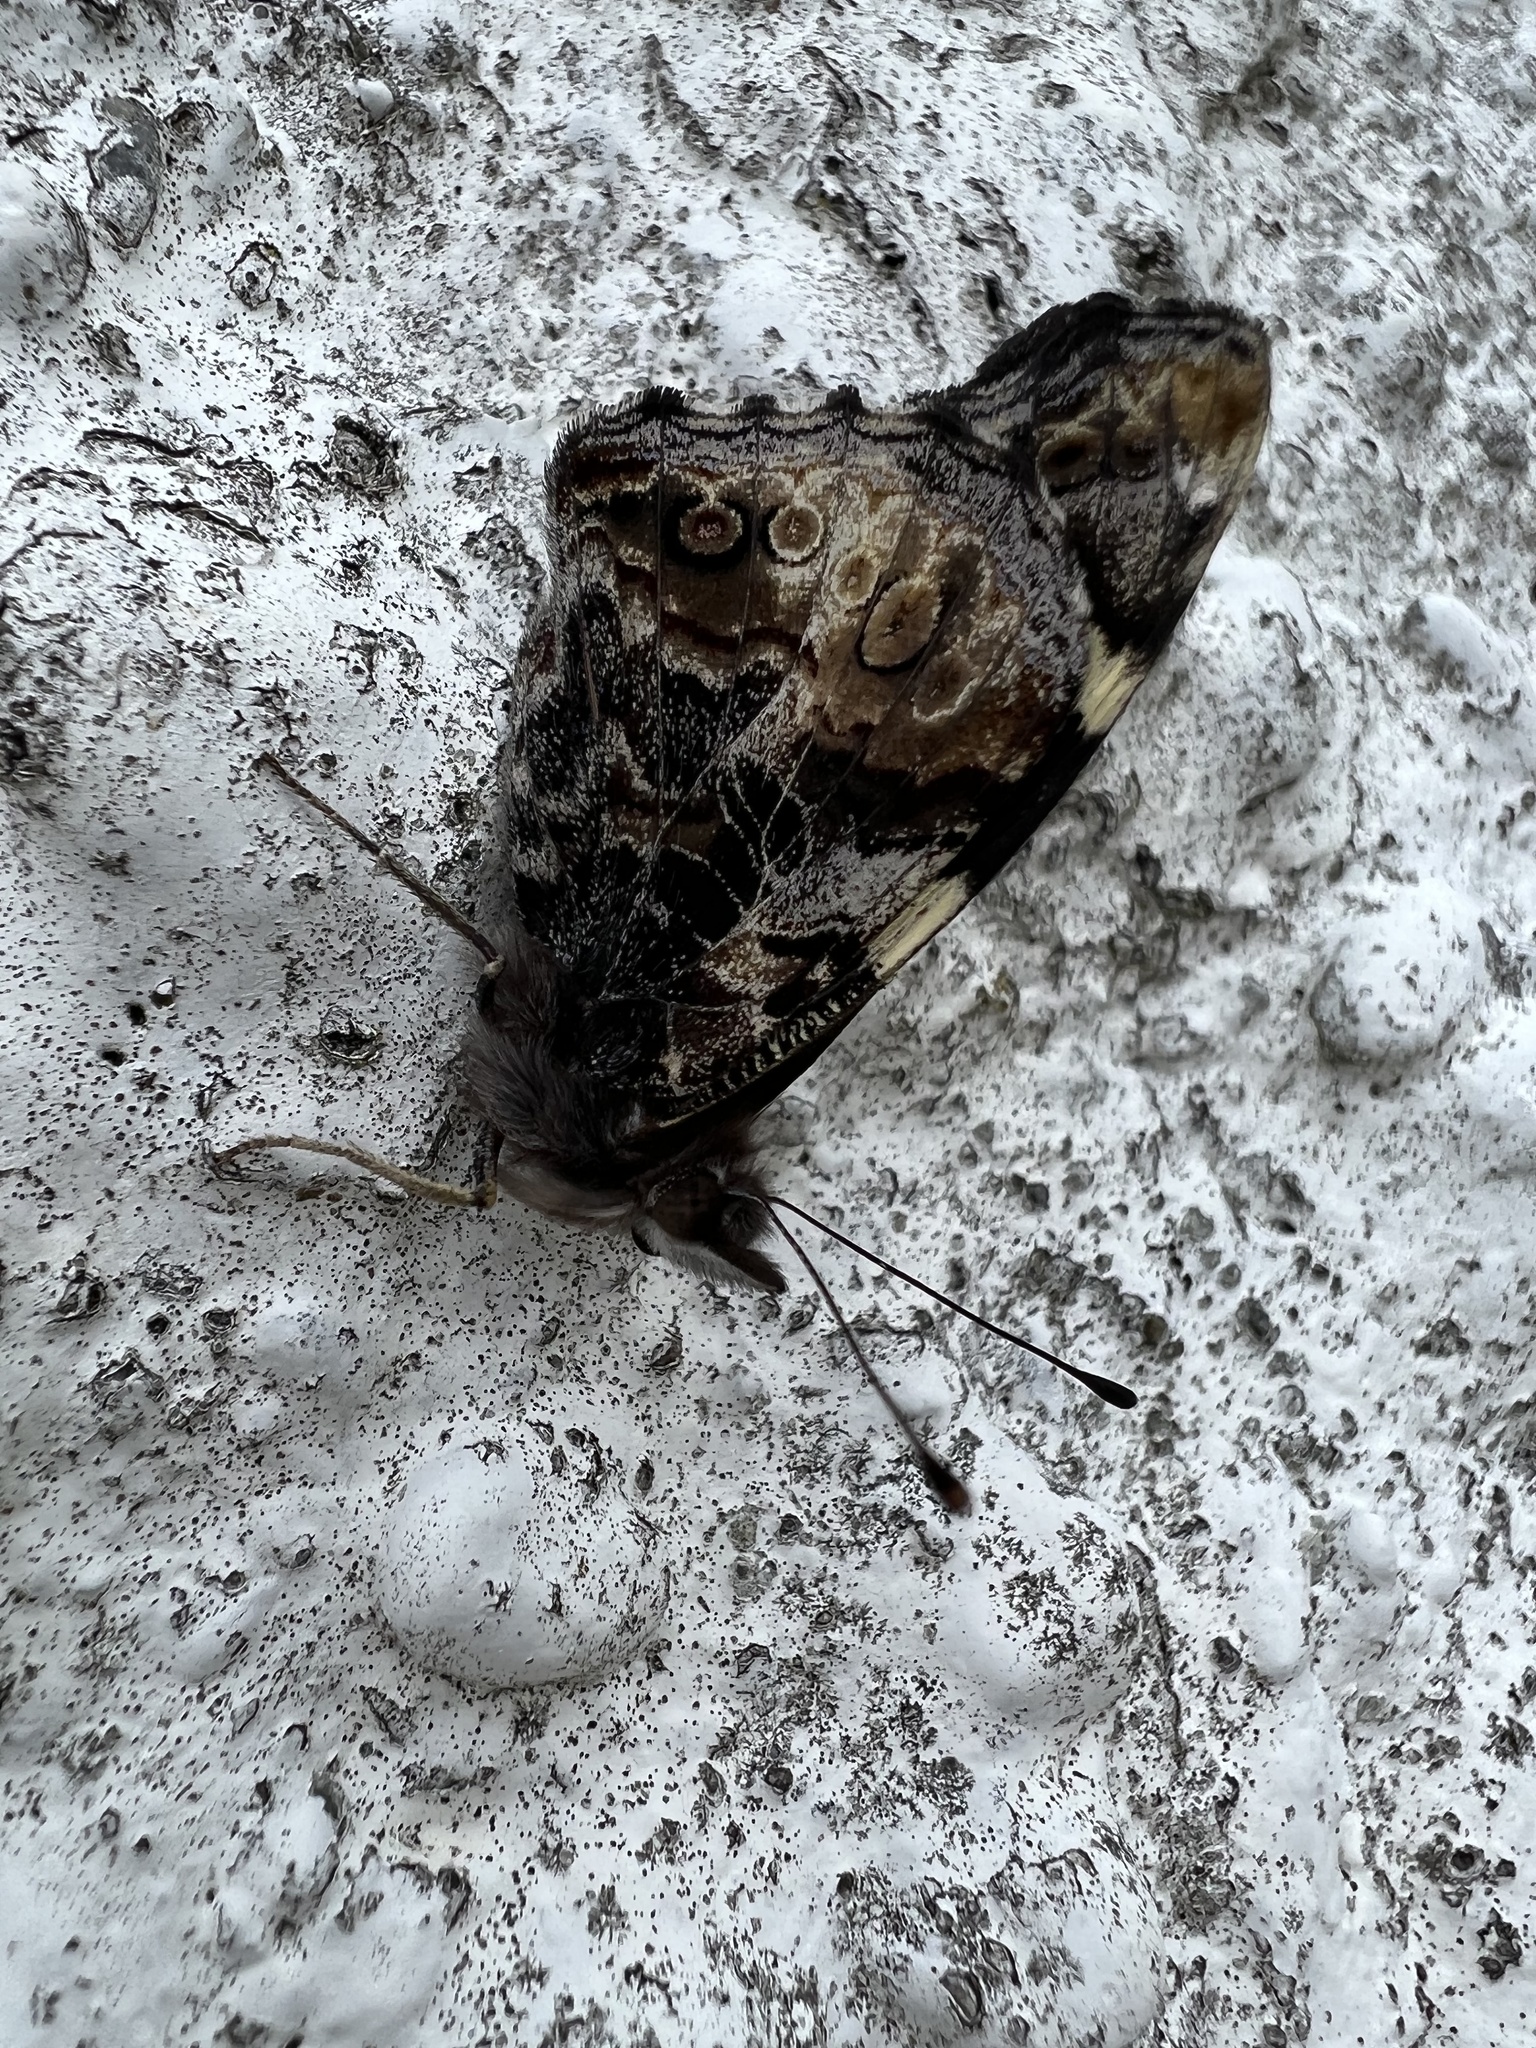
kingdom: Animalia
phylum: Arthropoda
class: Insecta
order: Lepidoptera
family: Nymphalidae
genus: Vanessa
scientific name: Vanessa itea
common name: Yellow admiral
